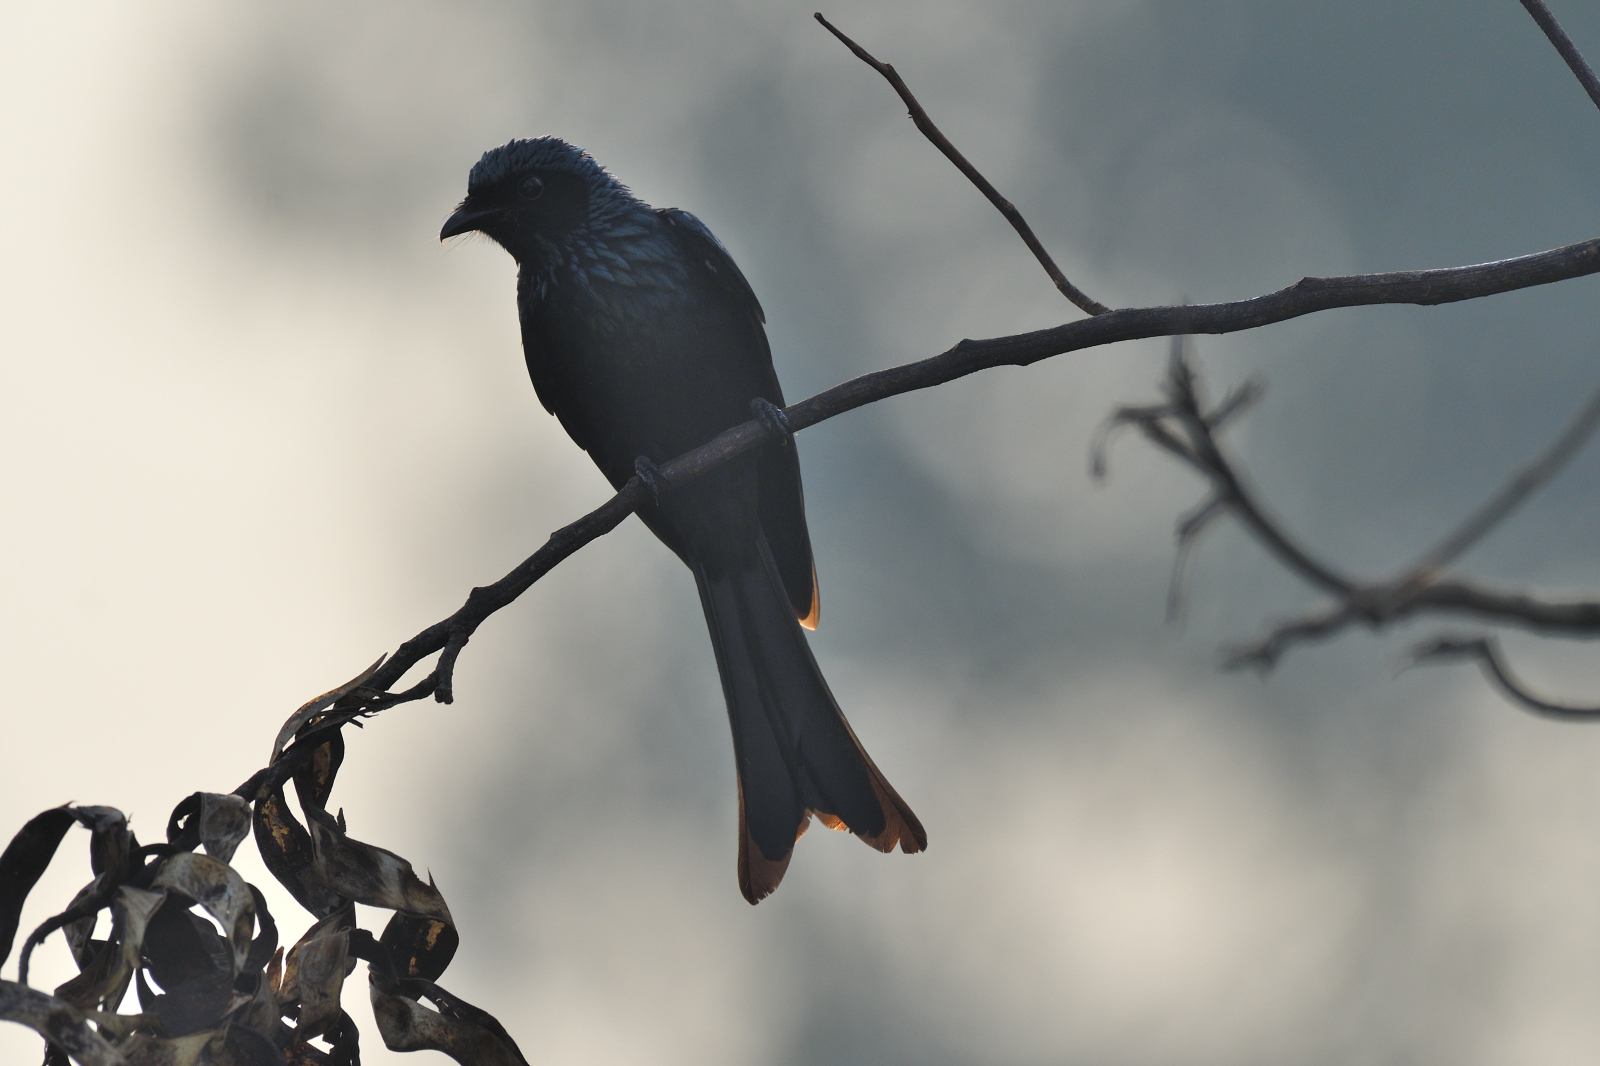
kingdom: Animalia
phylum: Chordata
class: Aves
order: Passeriformes
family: Dicruridae
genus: Dicrurus
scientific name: Dicrurus aeneus
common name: Bronzed drongo
